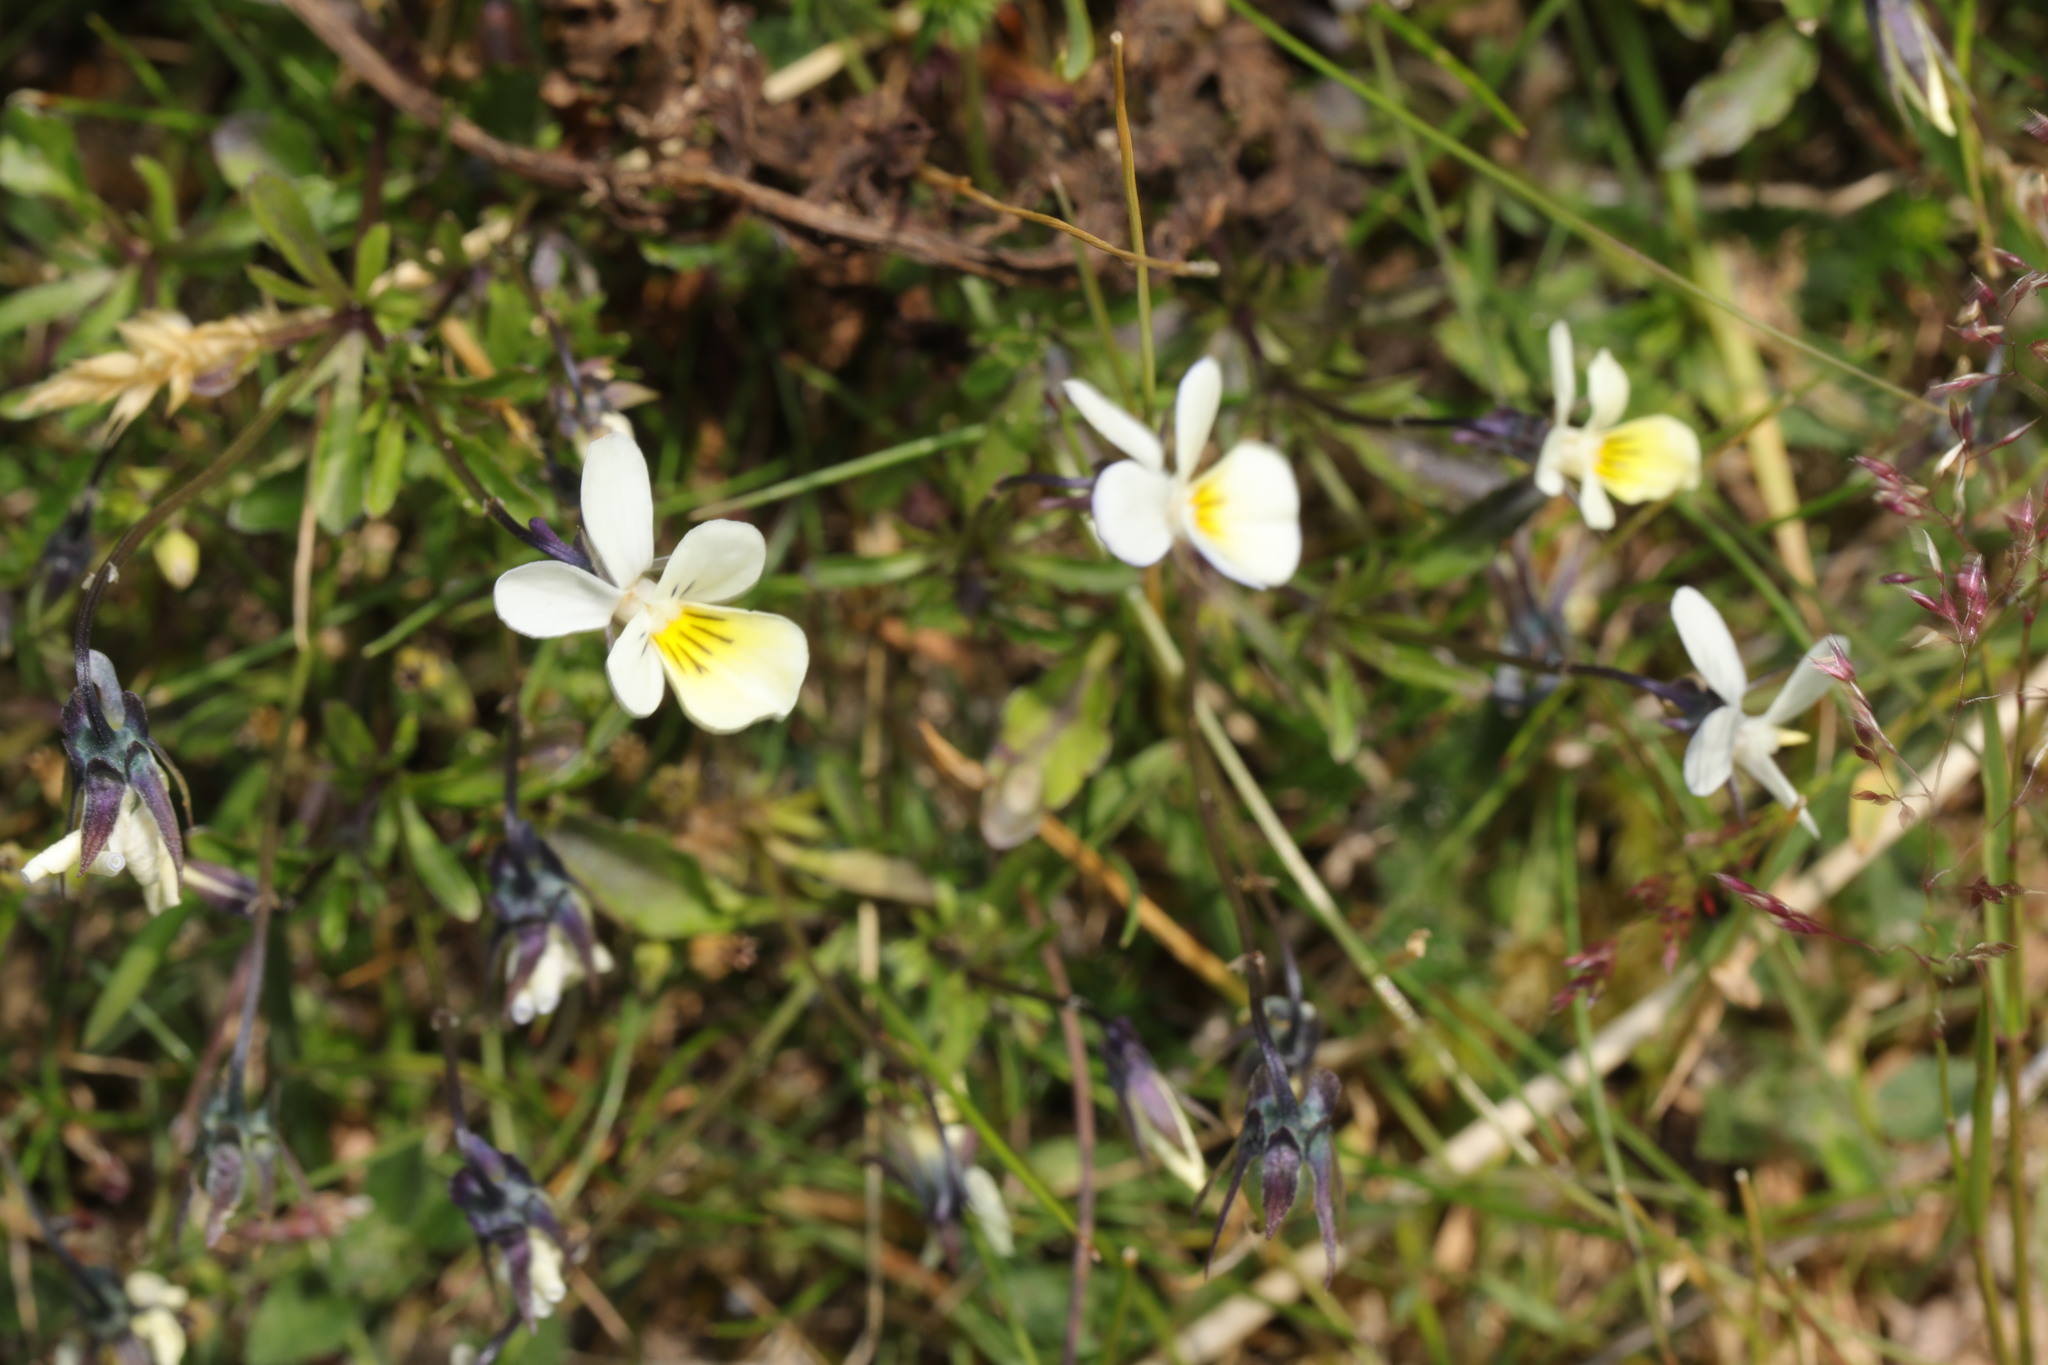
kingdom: Plantae
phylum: Tracheophyta
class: Magnoliopsida
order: Malpighiales
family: Violaceae
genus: Viola
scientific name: Viola arvensis
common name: Field pansy
